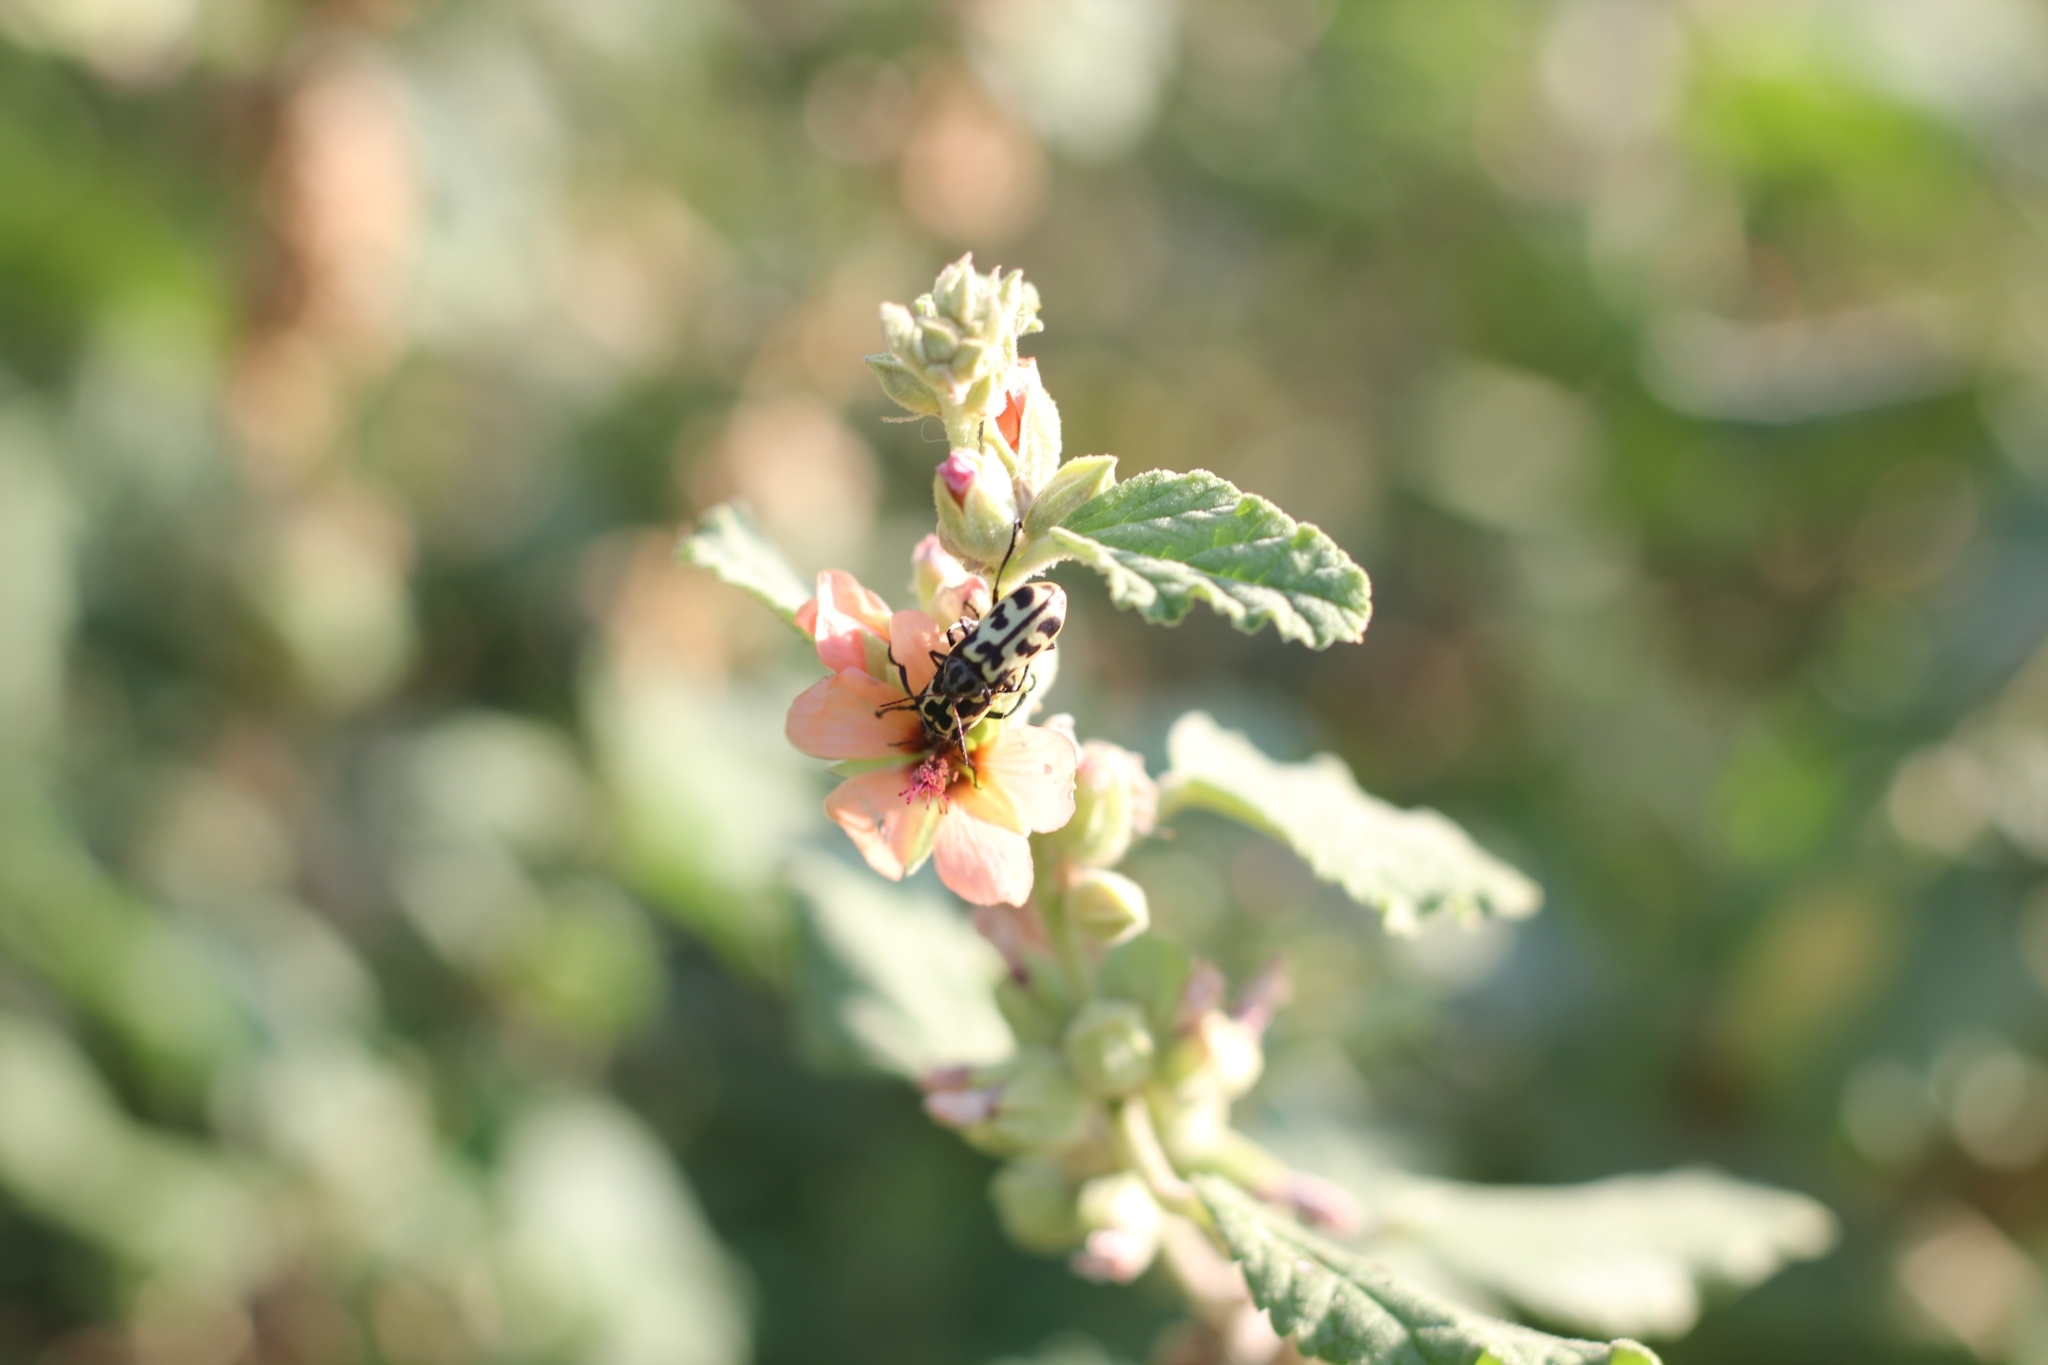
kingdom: Animalia
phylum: Arthropoda
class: Insecta
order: Coleoptera
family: Melyridae
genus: Astylus
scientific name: Astylus atromaculatus
